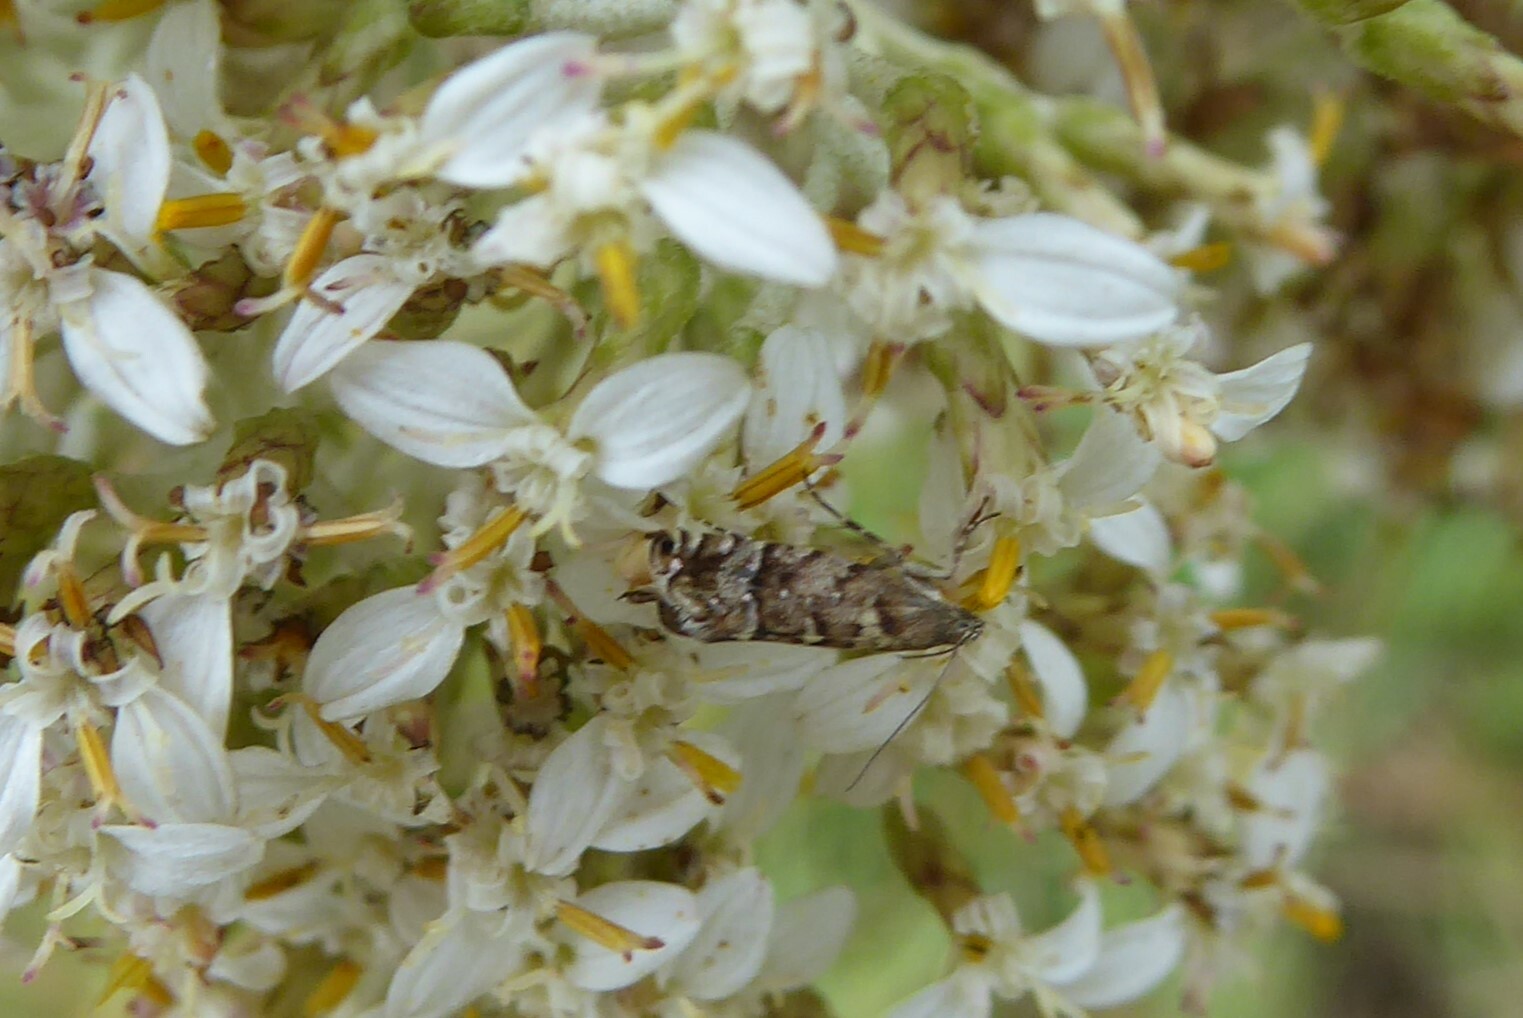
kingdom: Animalia
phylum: Arthropoda
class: Insecta
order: Lepidoptera
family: Glyphipterigidae
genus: Glyphipterix
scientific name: Glyphipterix nephoptera
